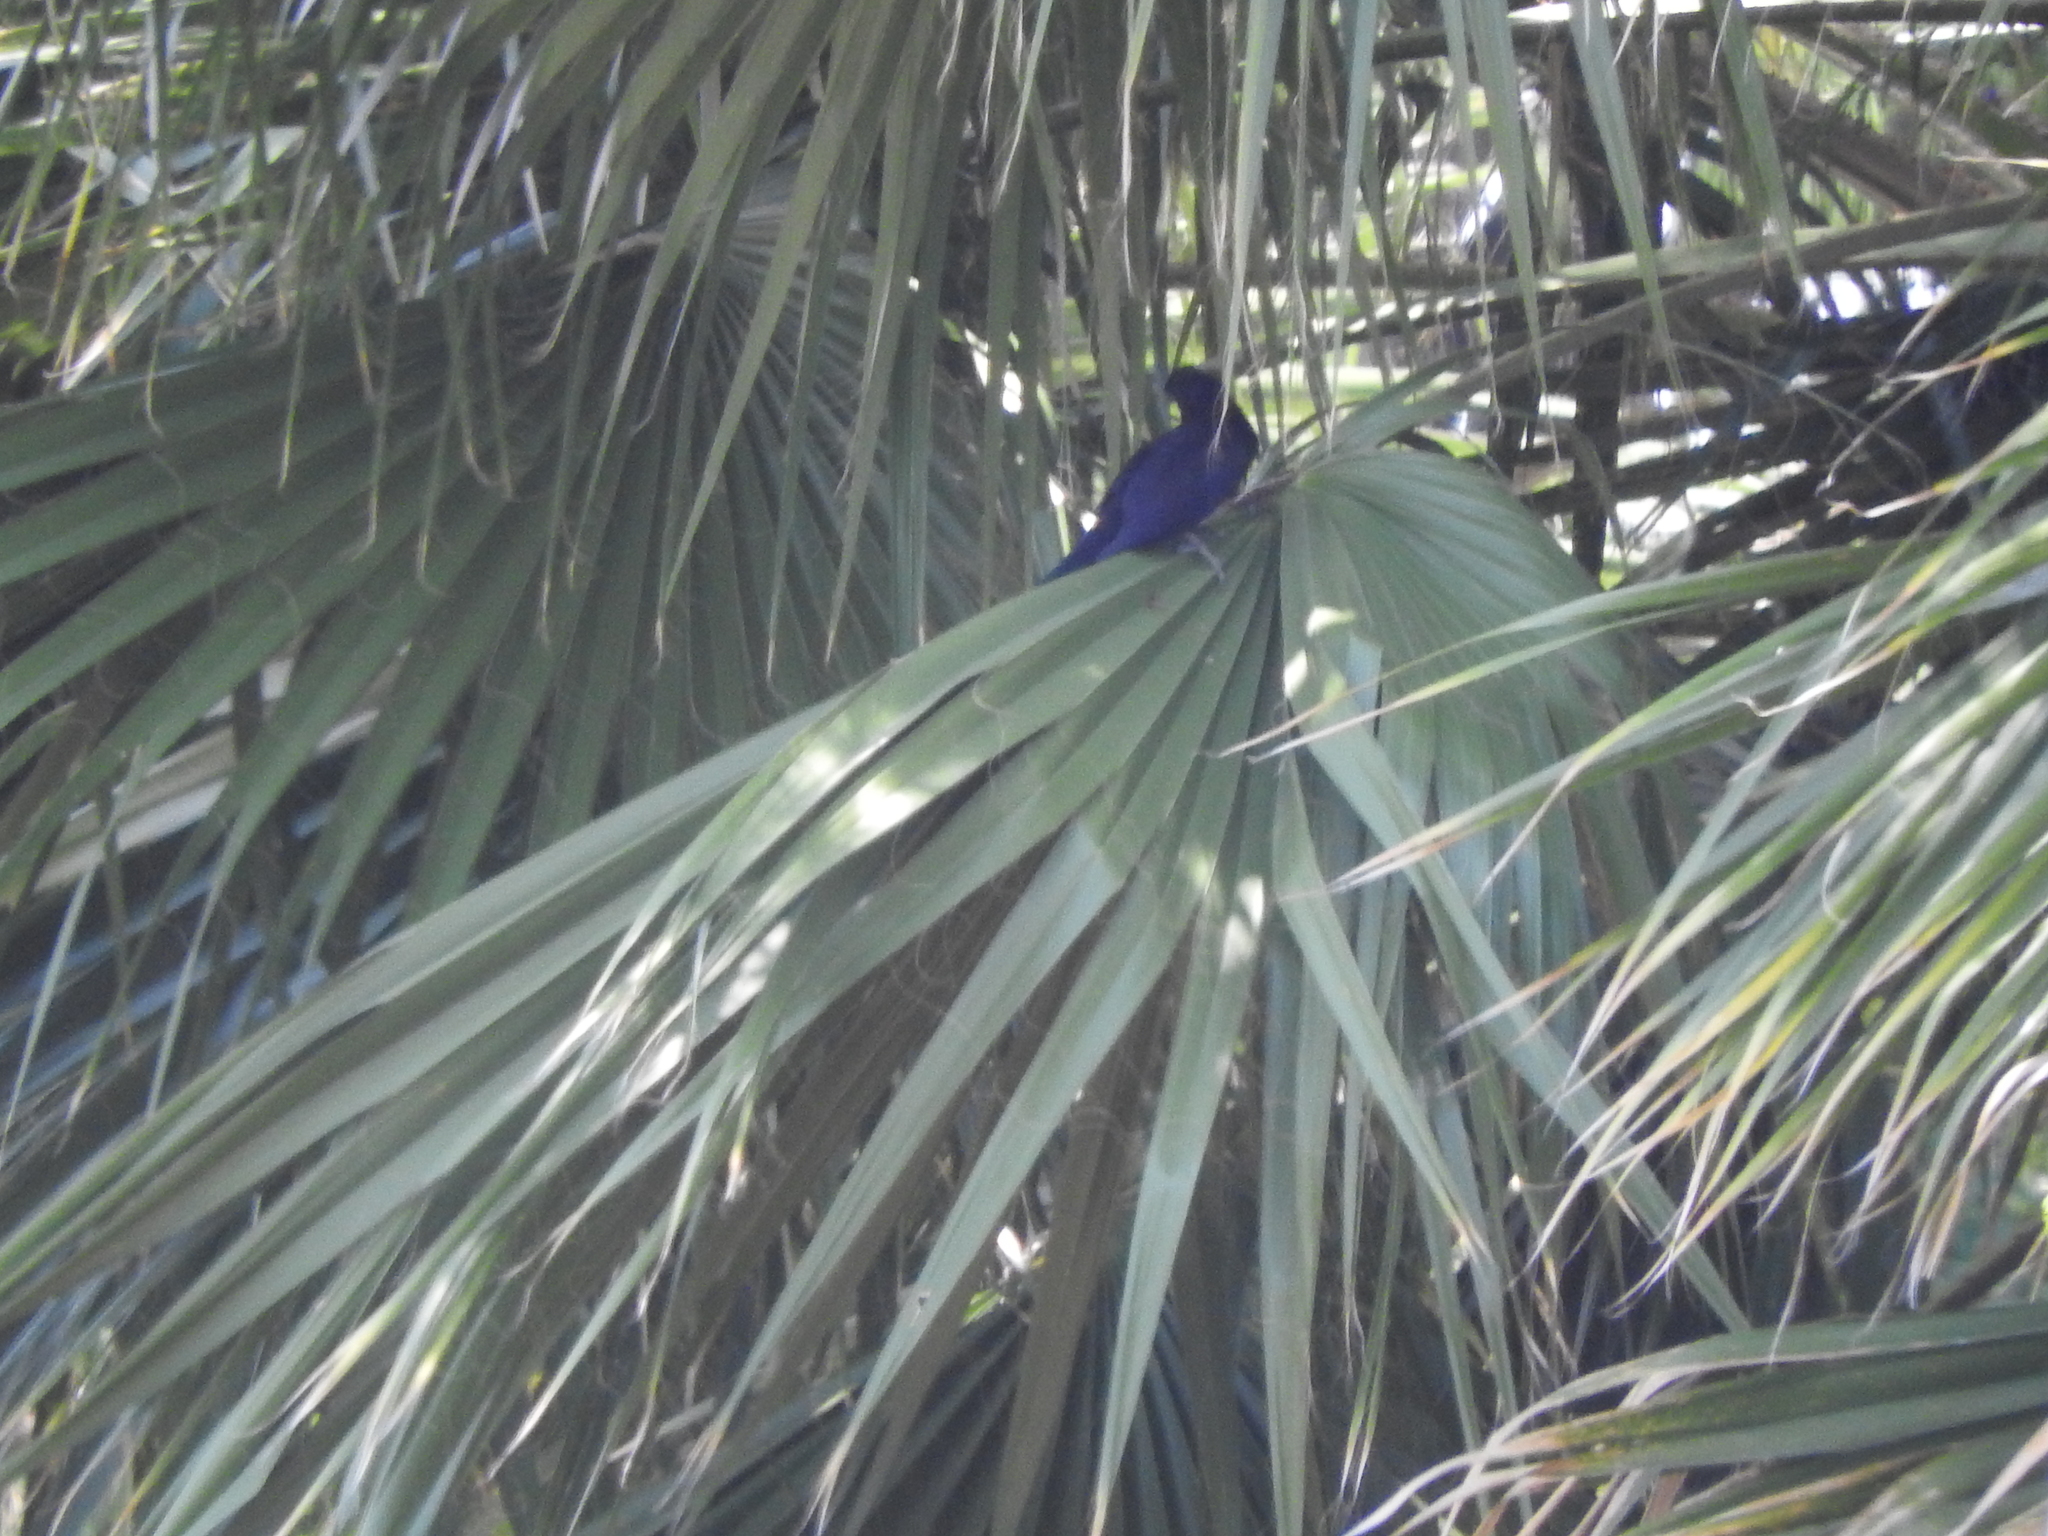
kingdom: Animalia
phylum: Chordata
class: Aves
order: Passeriformes
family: Icteridae
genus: Quiscalus
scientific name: Quiscalus mexicanus
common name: Great-tailed grackle
